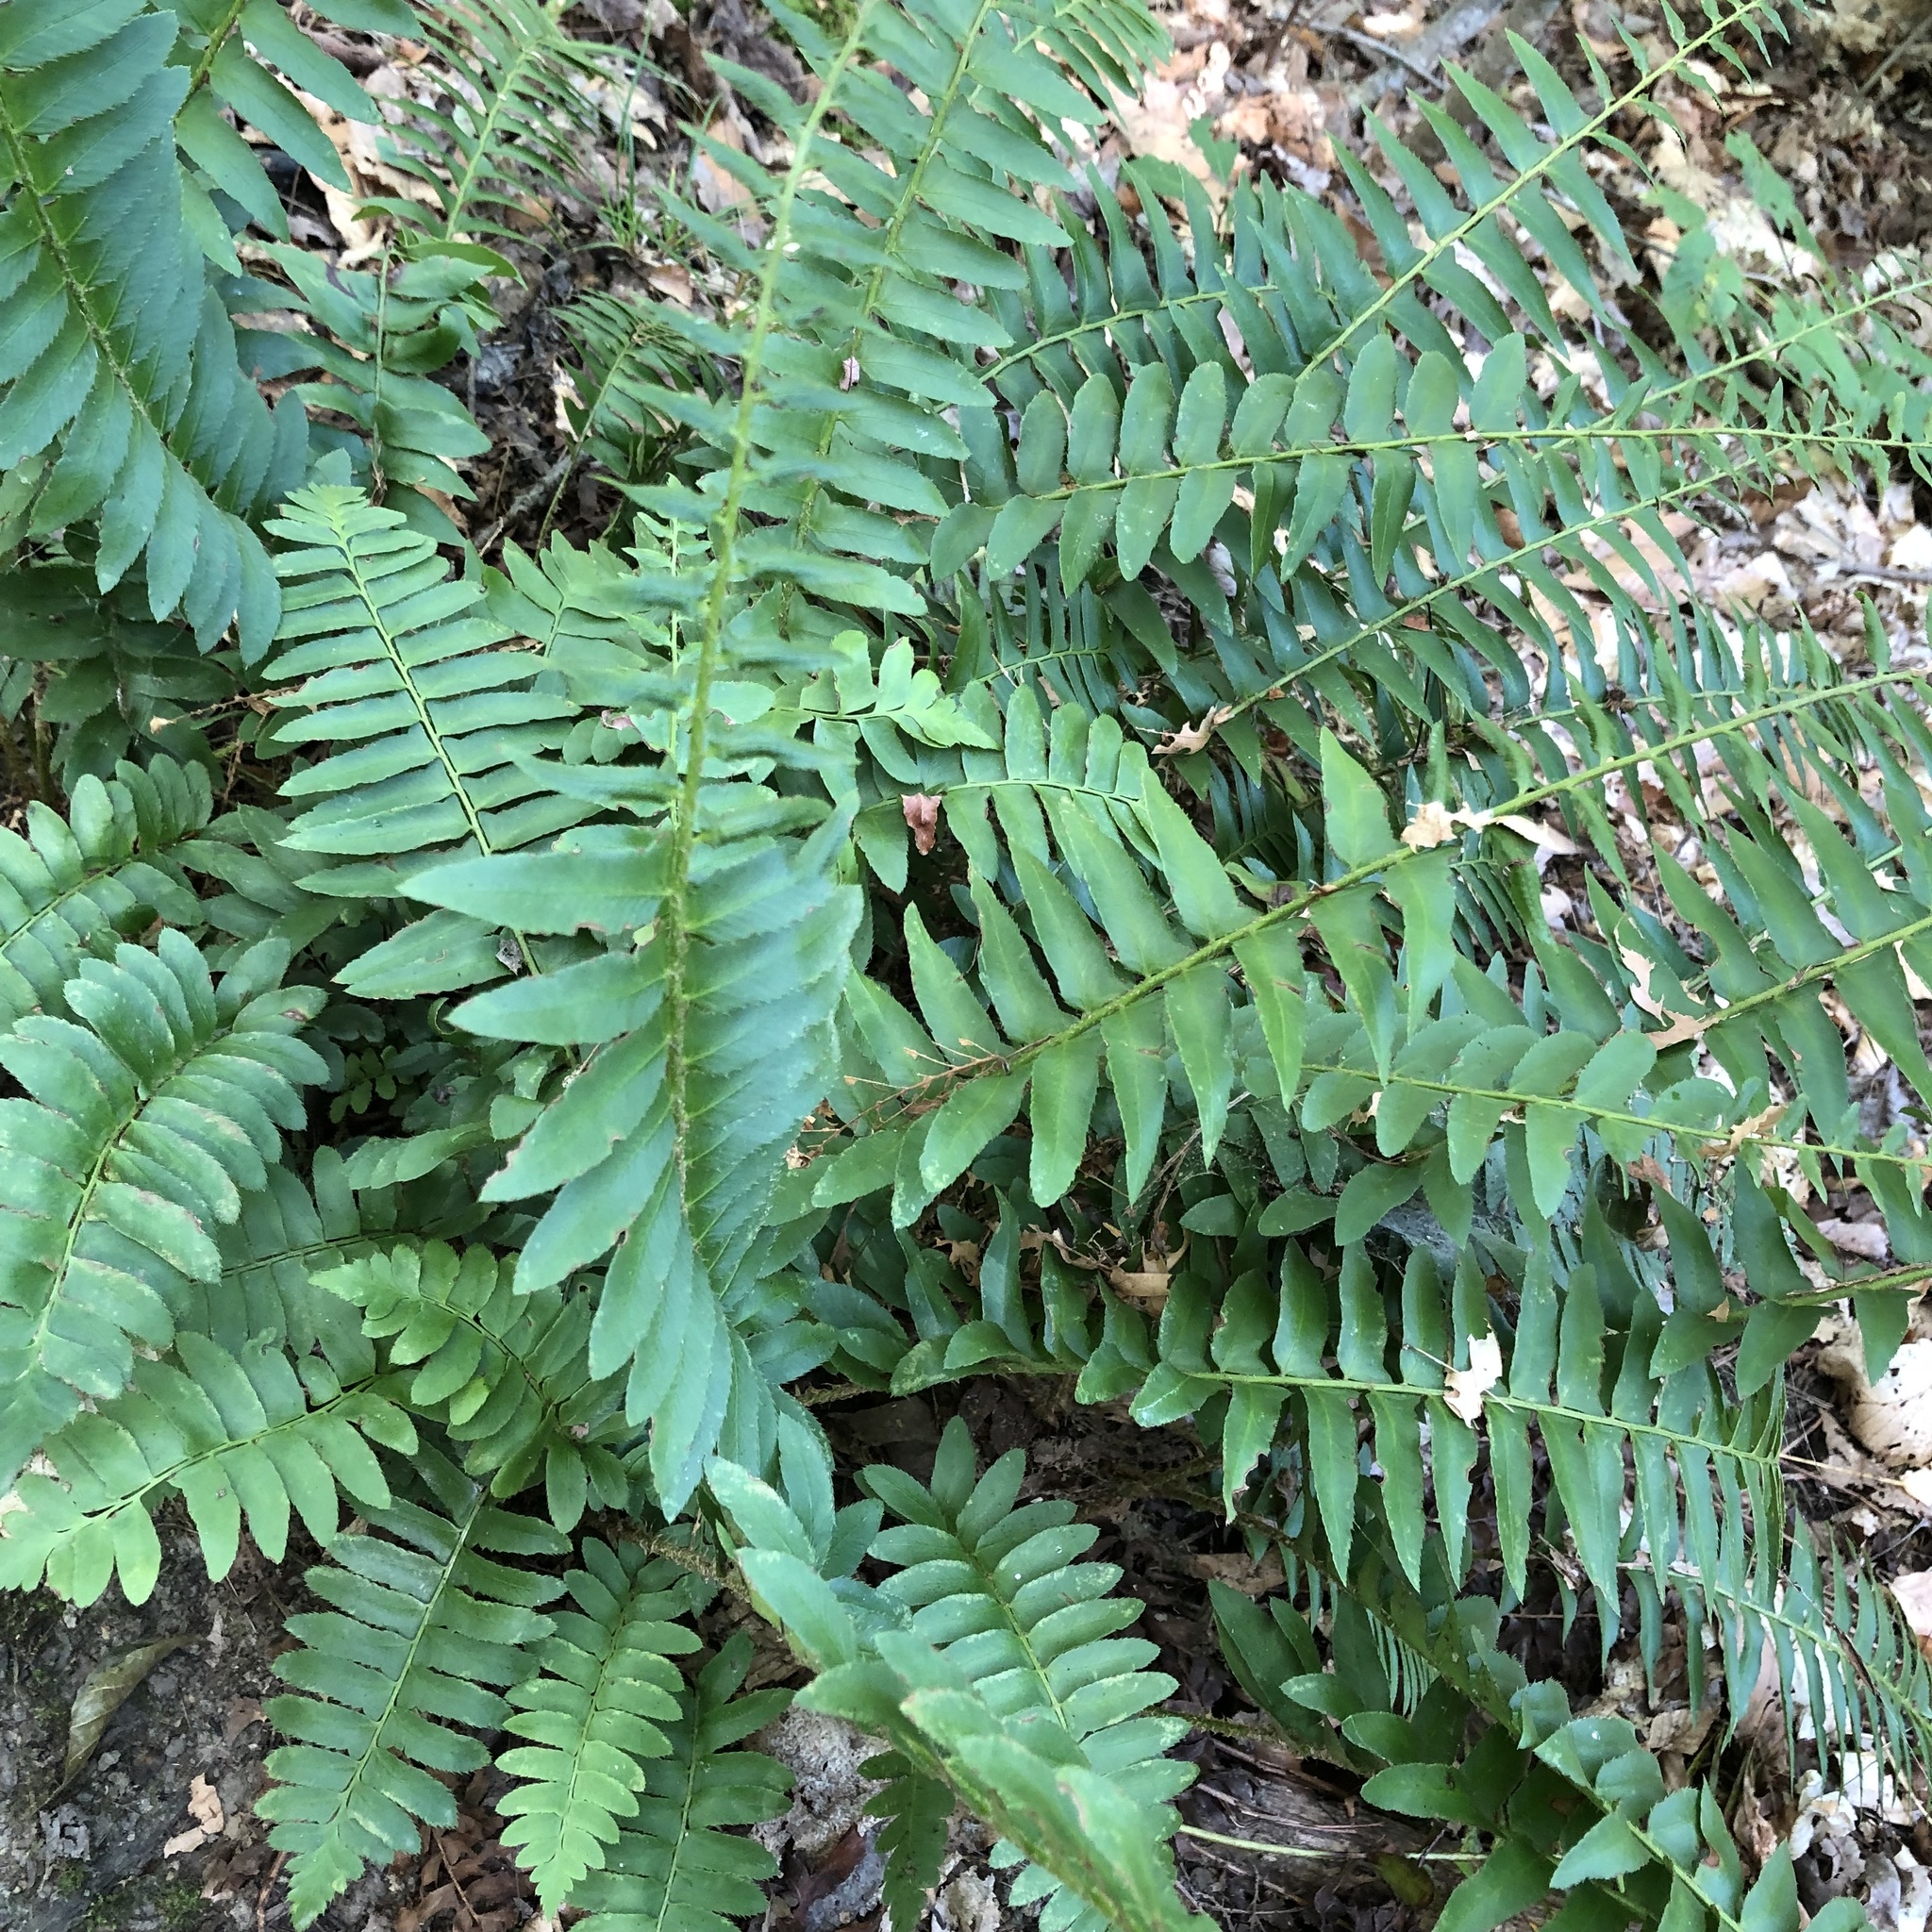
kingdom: Plantae
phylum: Tracheophyta
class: Polypodiopsida
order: Polypodiales
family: Dryopteridaceae
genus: Polystichum
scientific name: Polystichum acrostichoides
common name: Christmas fern
